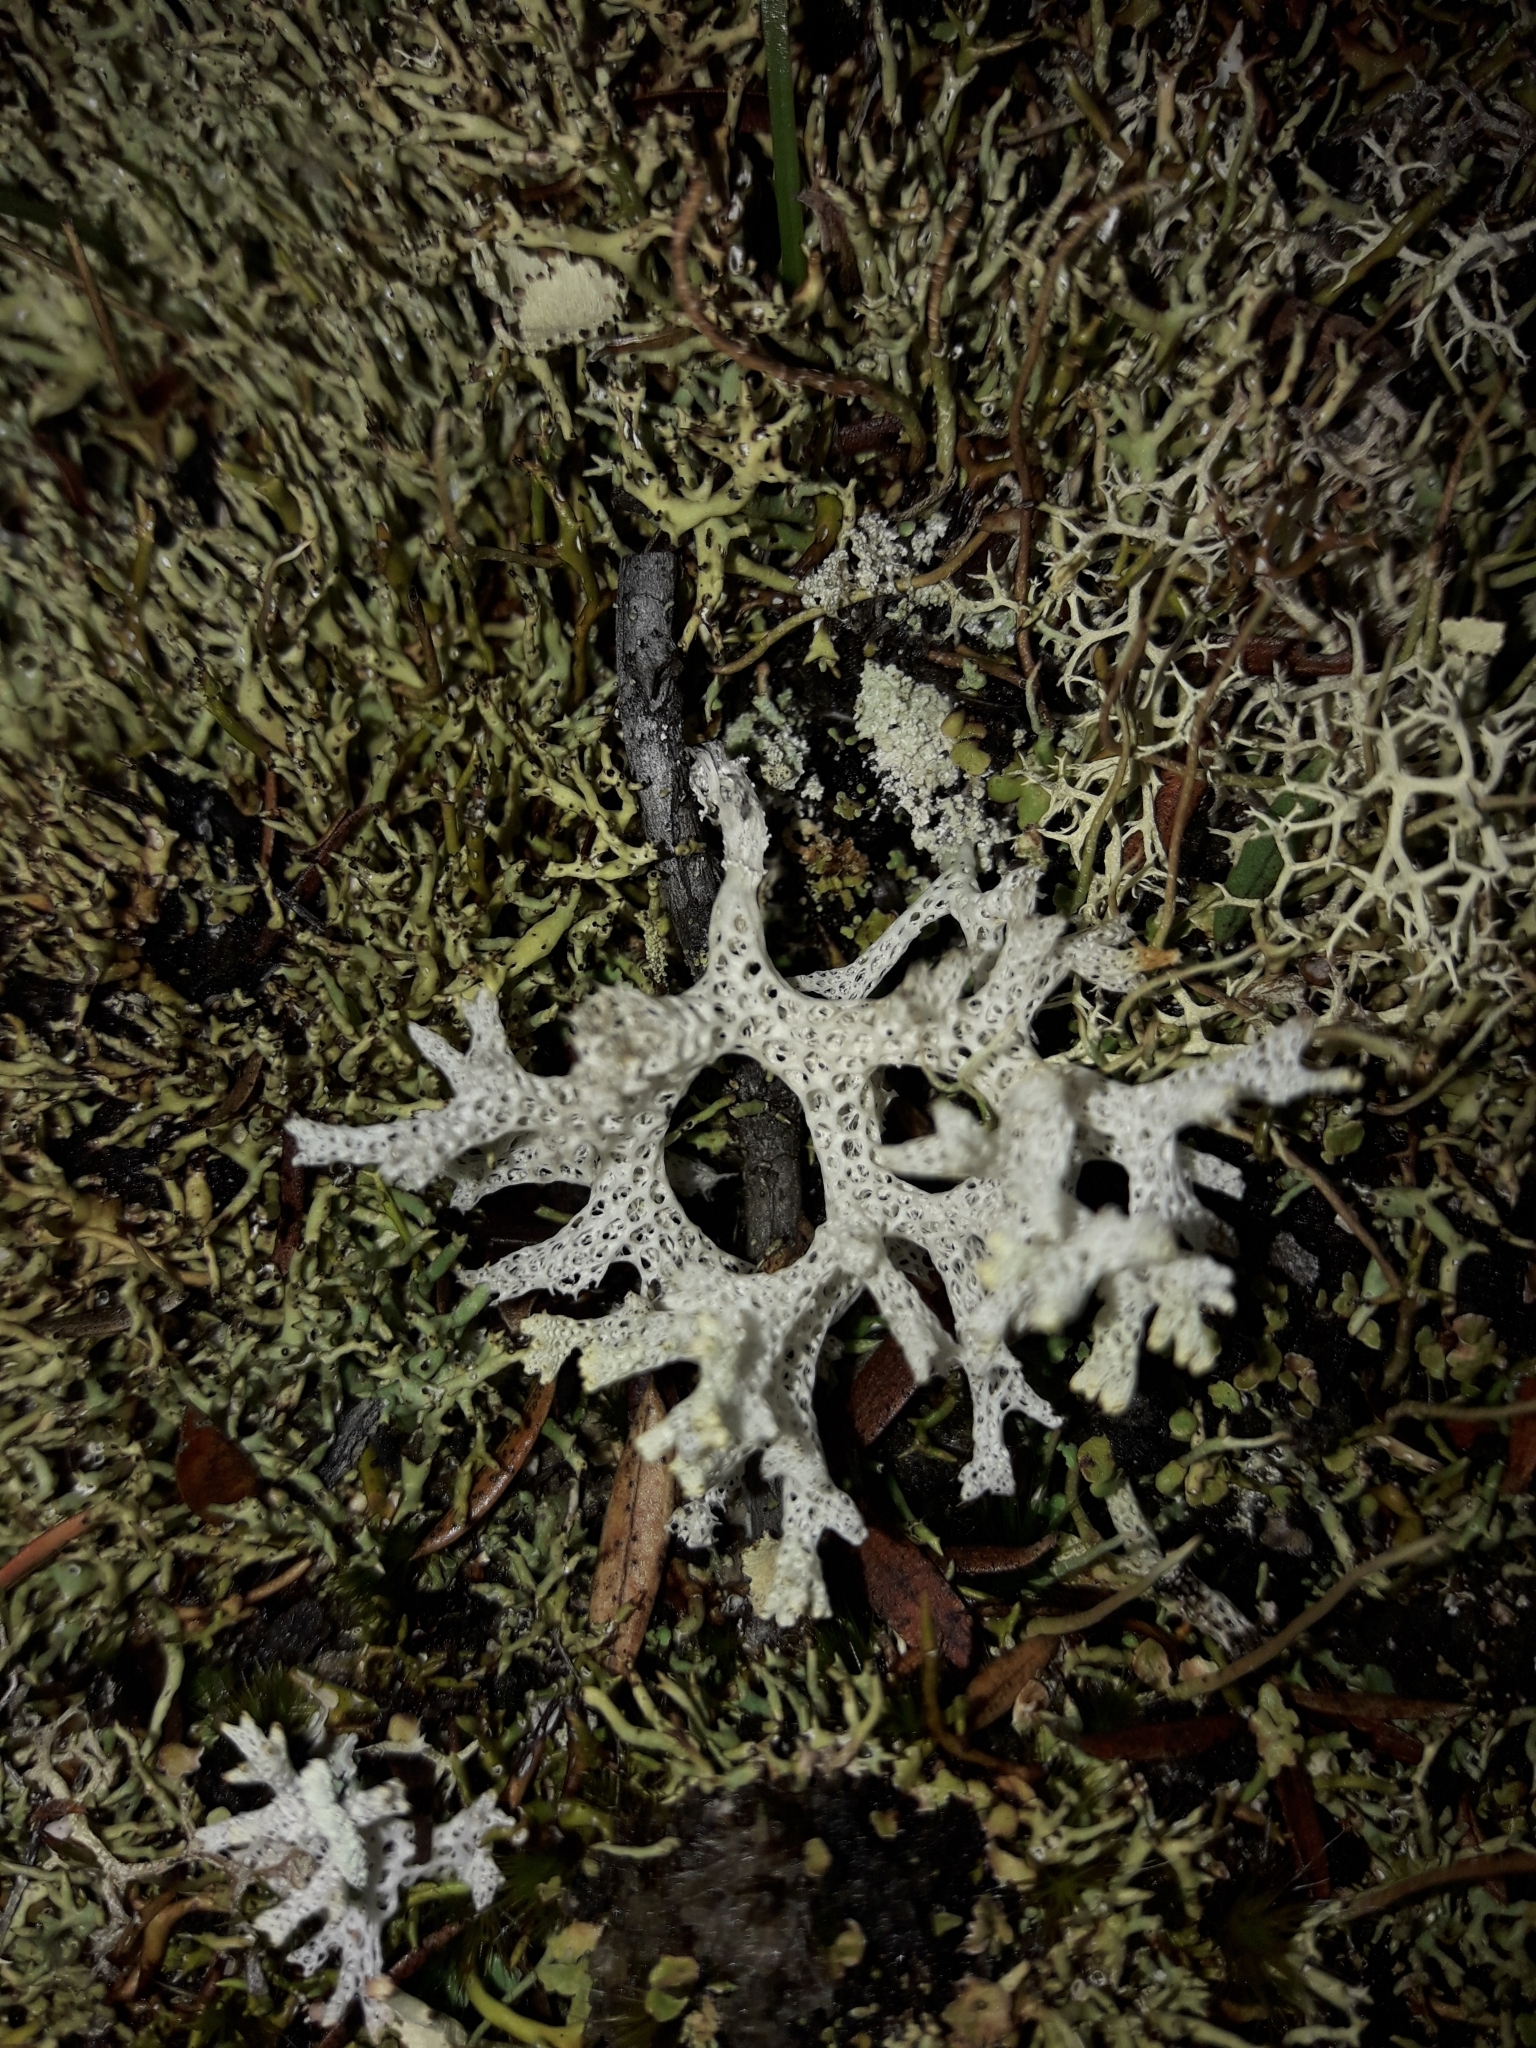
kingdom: Fungi
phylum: Ascomycota
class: Lecanoromycetes
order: Lecanorales
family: Cladoniaceae
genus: Pulchrocladia
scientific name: Pulchrocladia retipora
